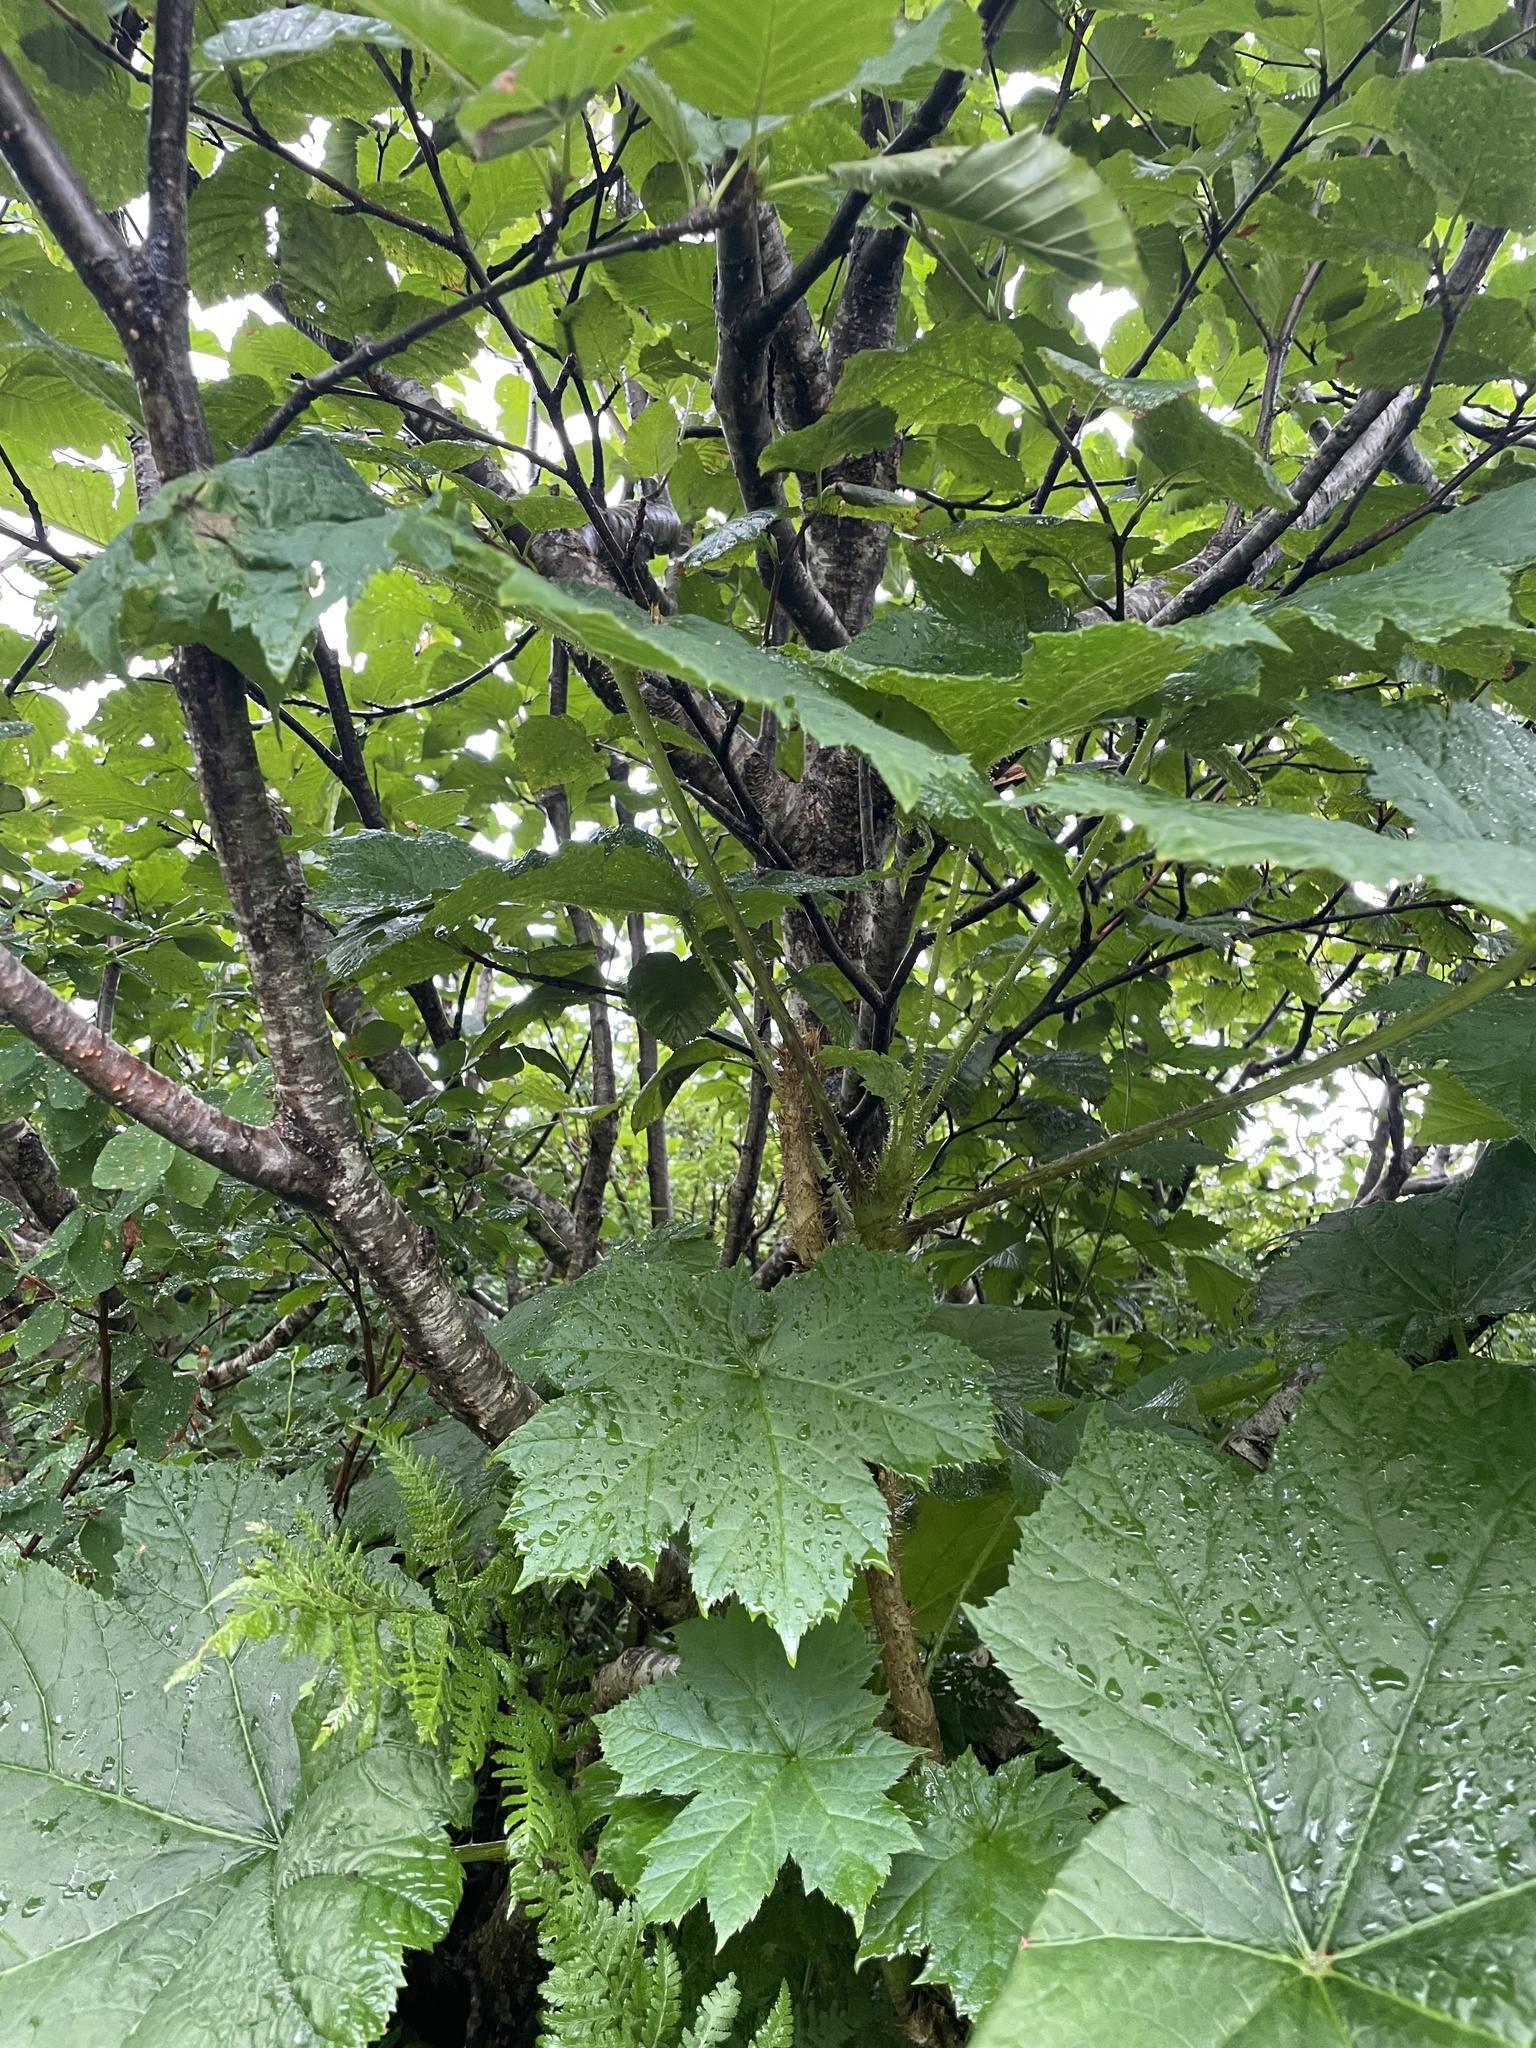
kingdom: Plantae
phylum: Tracheophyta
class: Magnoliopsida
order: Apiales
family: Araliaceae
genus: Oplopanax
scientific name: Oplopanax horridus
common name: Devil's walking-stick
